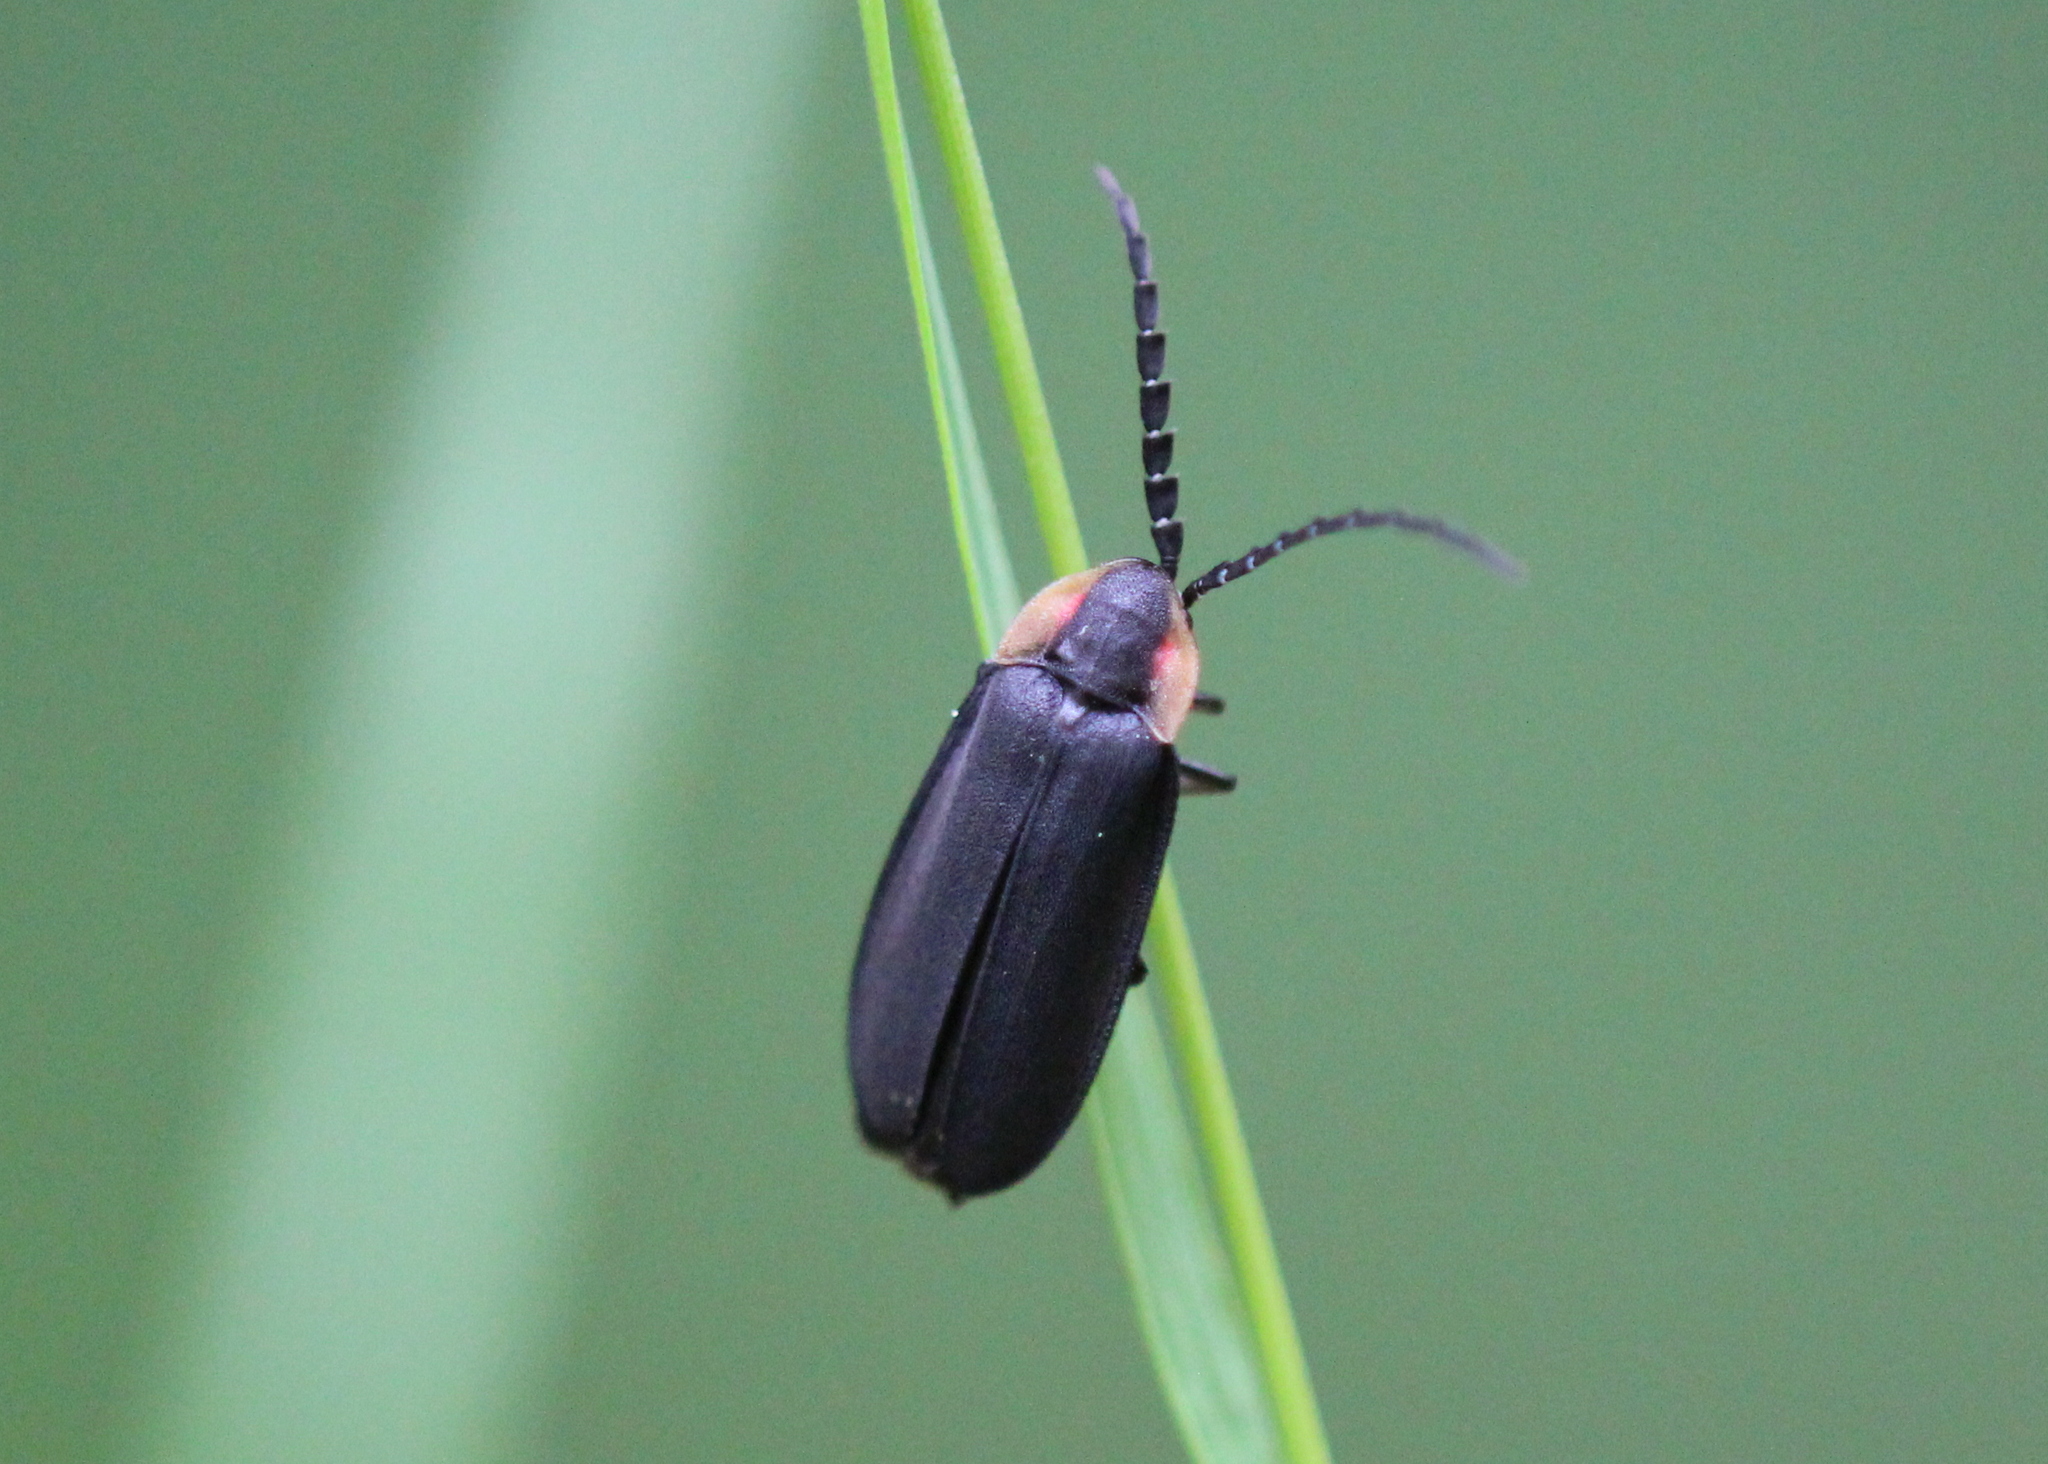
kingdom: Animalia
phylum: Arthropoda
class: Insecta
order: Coleoptera
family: Lampyridae
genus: Lucidota
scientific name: Lucidota atra
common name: Black firefly
